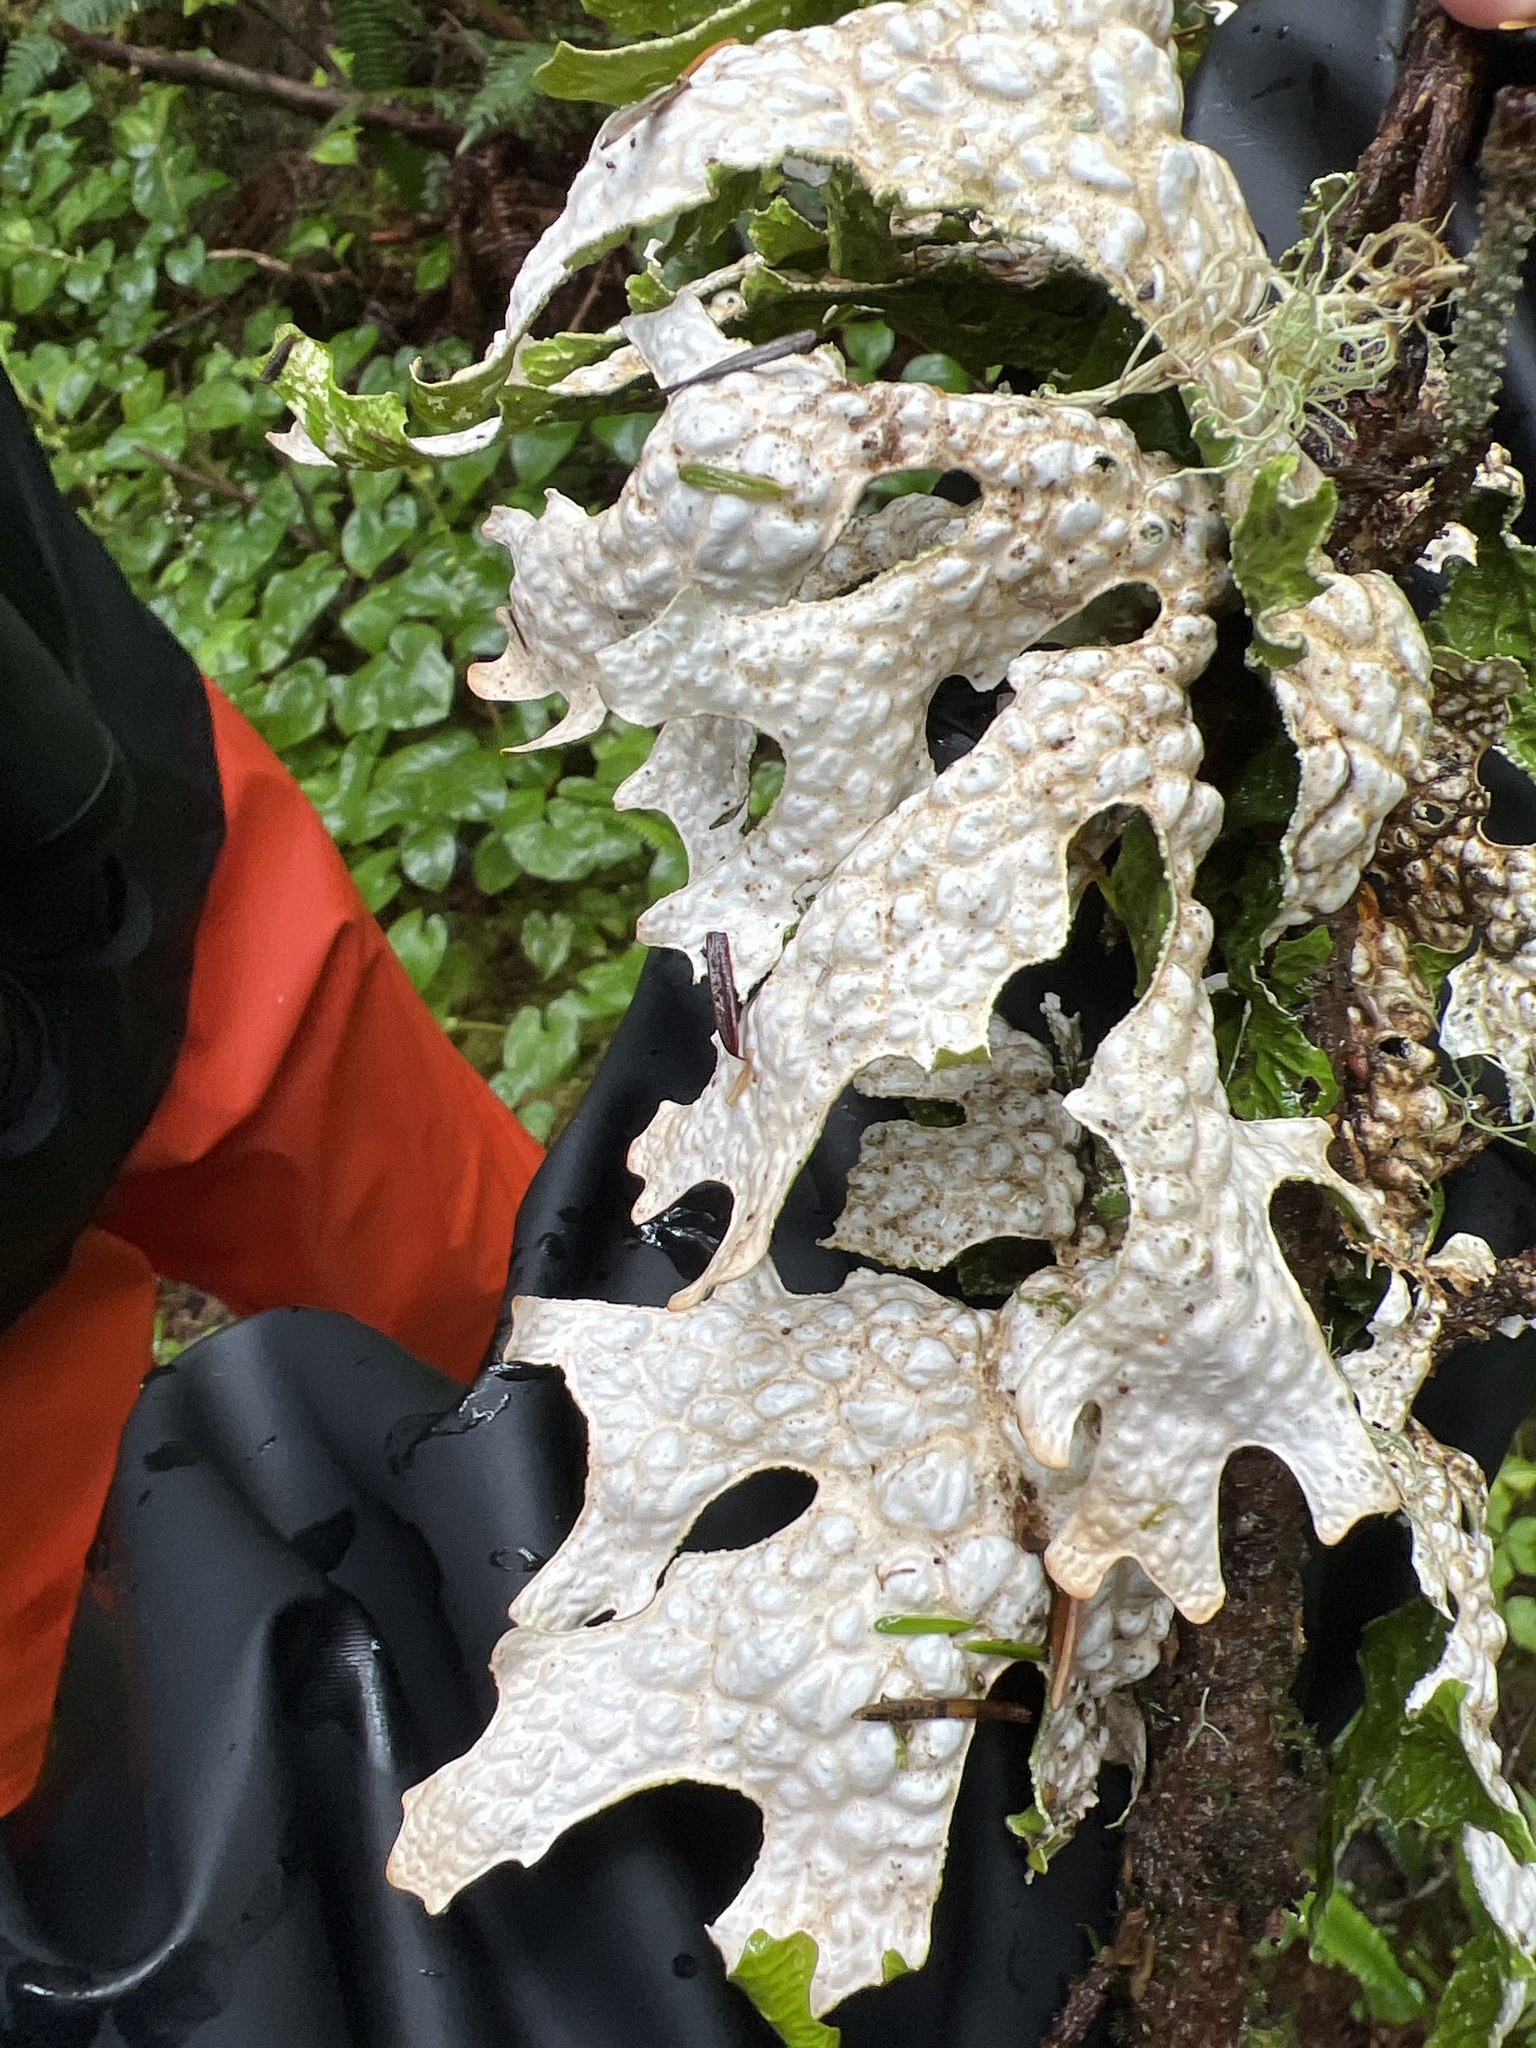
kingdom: Fungi
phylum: Ascomycota
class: Lecanoromycetes
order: Peltigerales
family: Lobariaceae
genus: Lobaria
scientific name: Lobaria pulmonaria
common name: Lungwort
